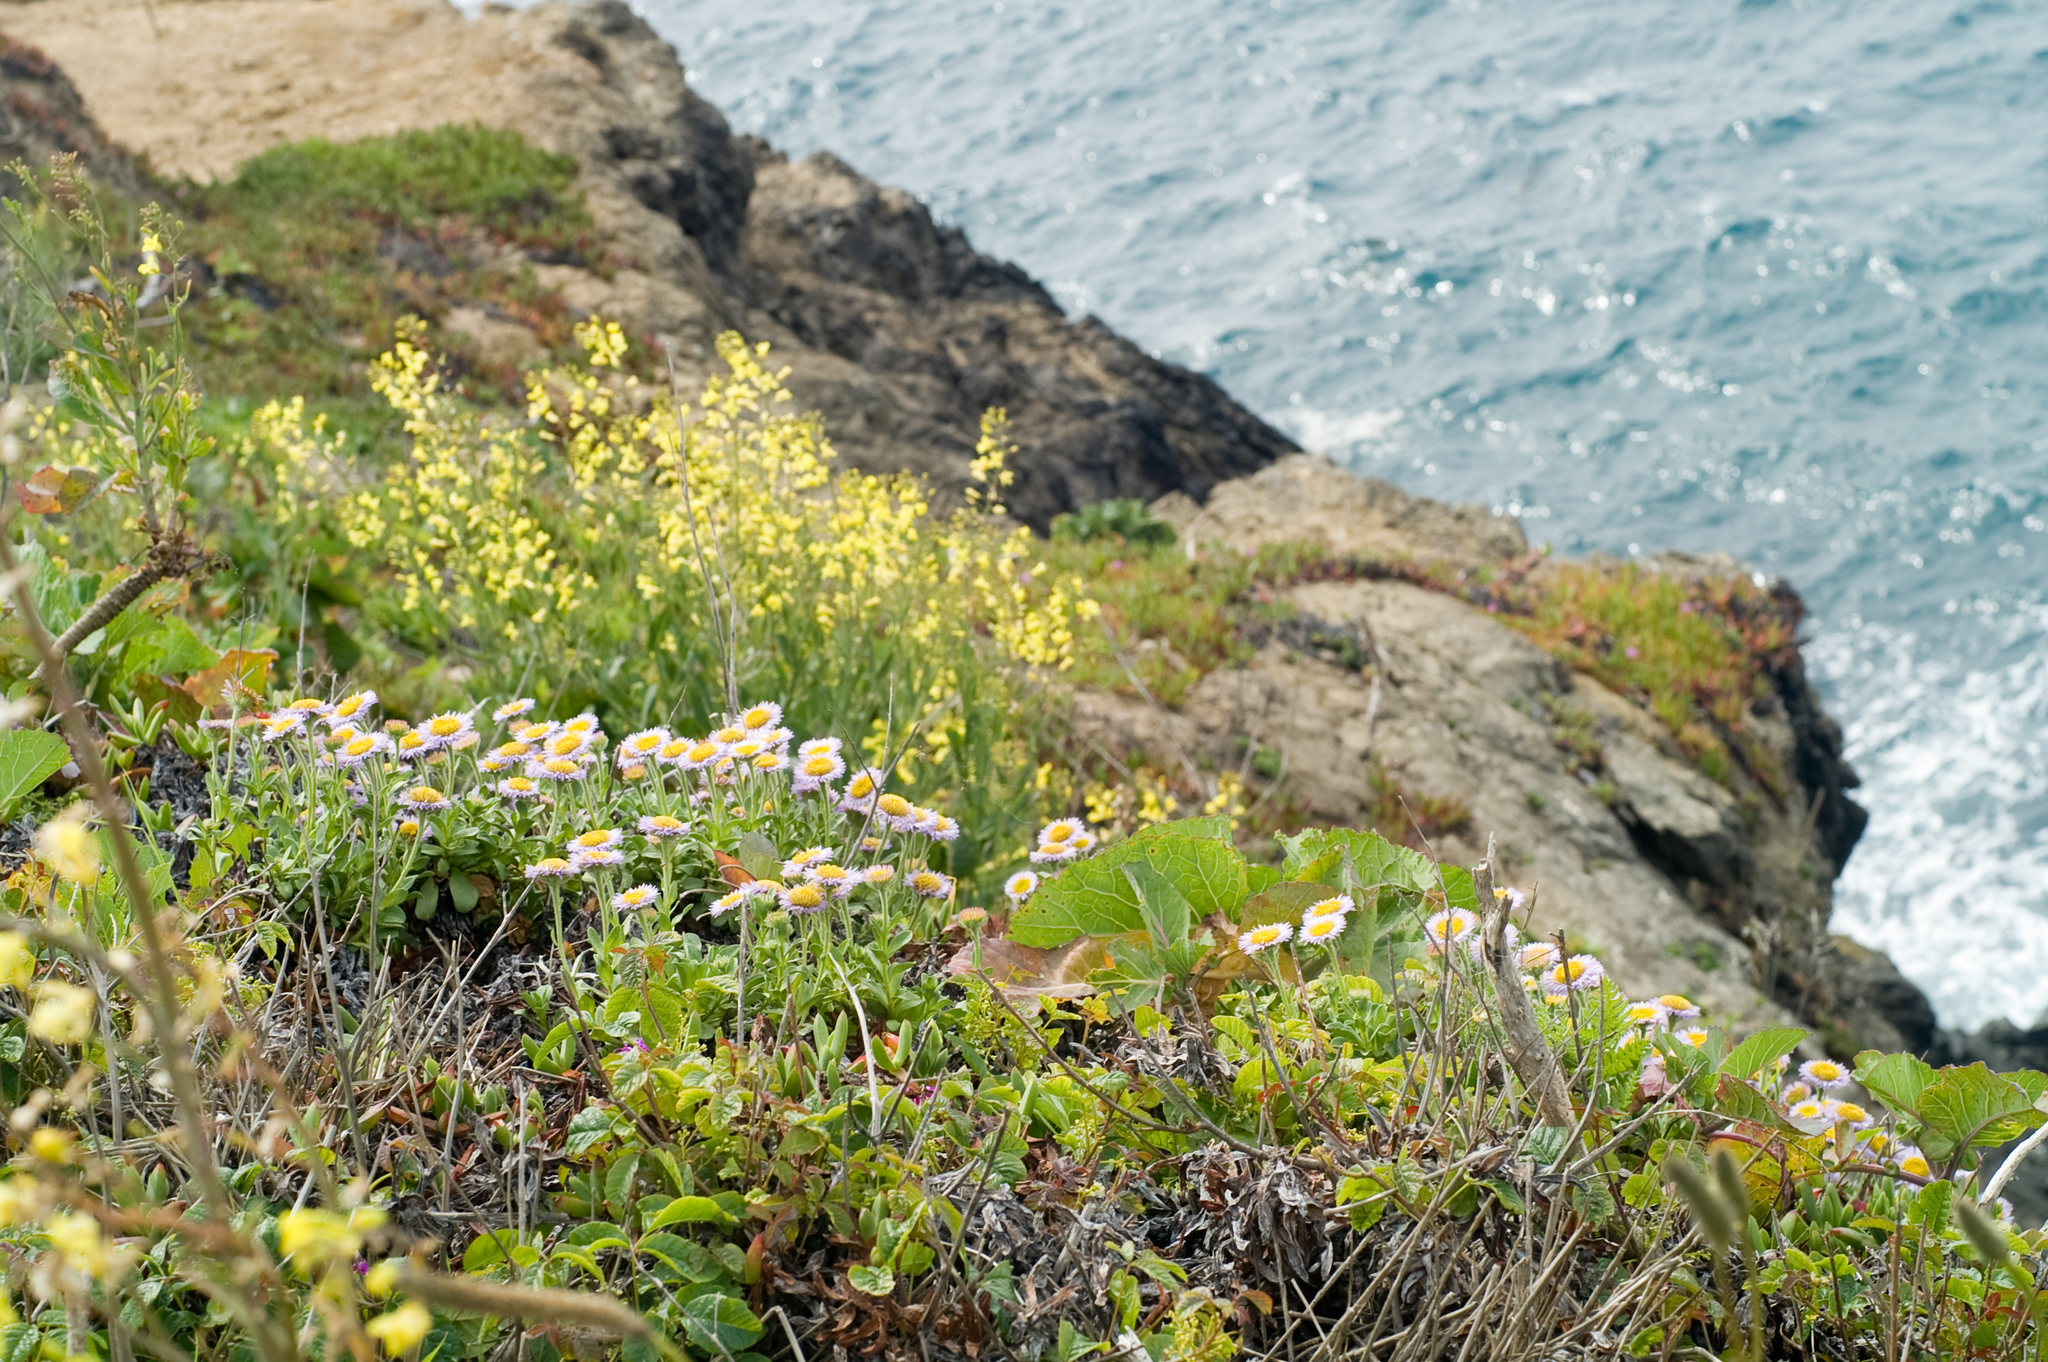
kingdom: Plantae
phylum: Tracheophyta
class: Magnoliopsida
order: Asterales
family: Asteraceae
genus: Erigeron
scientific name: Erigeron glaucus
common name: Seaside daisy
